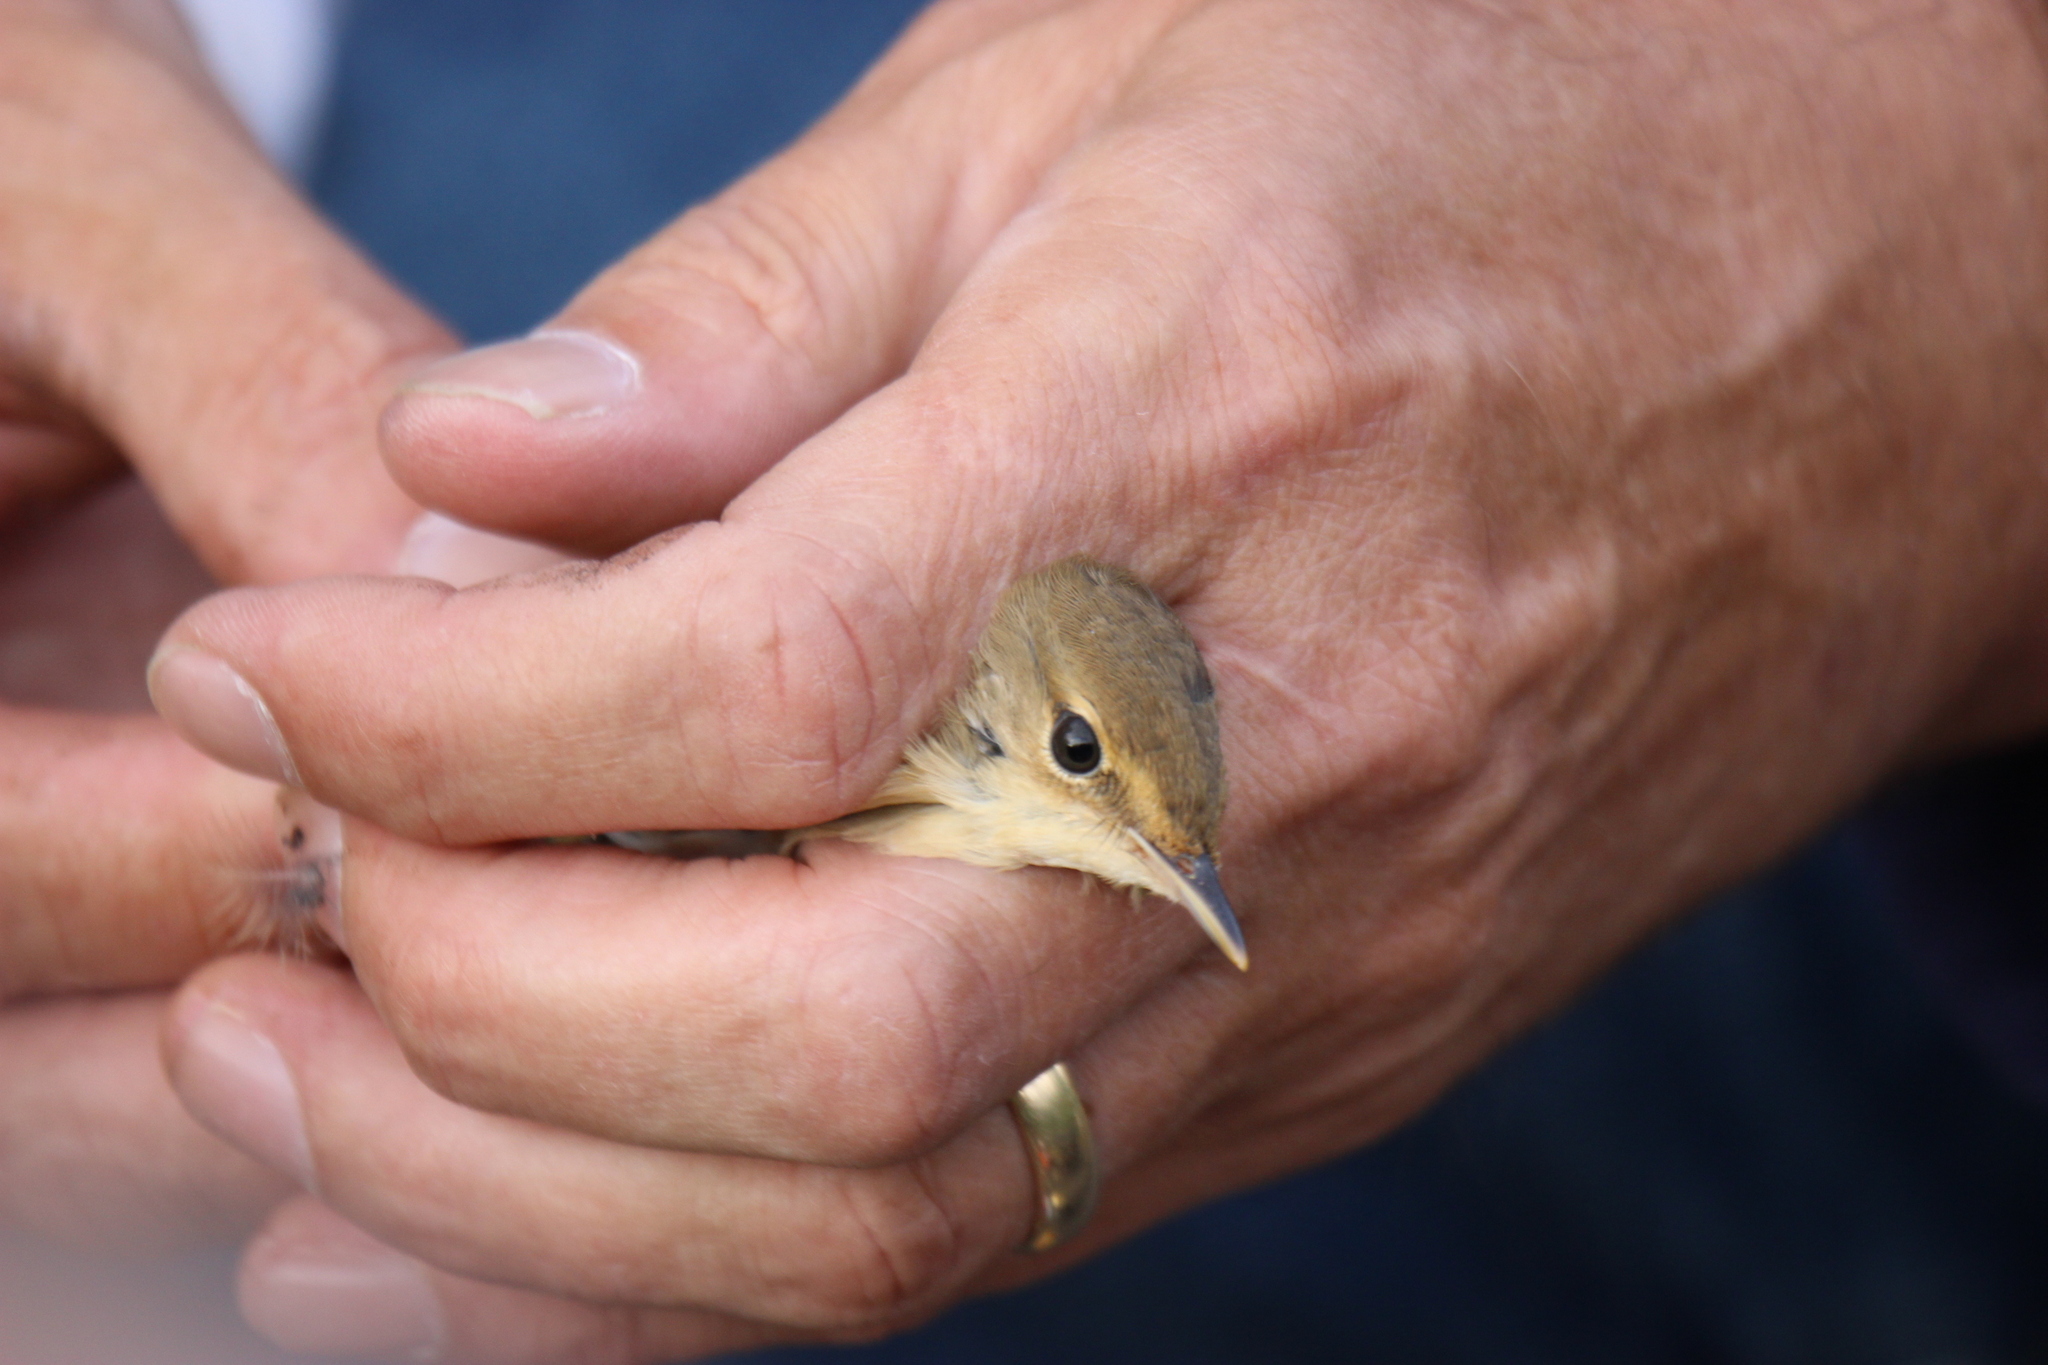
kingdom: Animalia
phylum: Chordata
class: Aves
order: Passeriformes
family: Acrocephalidae
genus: Acrocephalus
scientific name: Acrocephalus scirpaceus
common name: Eurasian reed warbler
